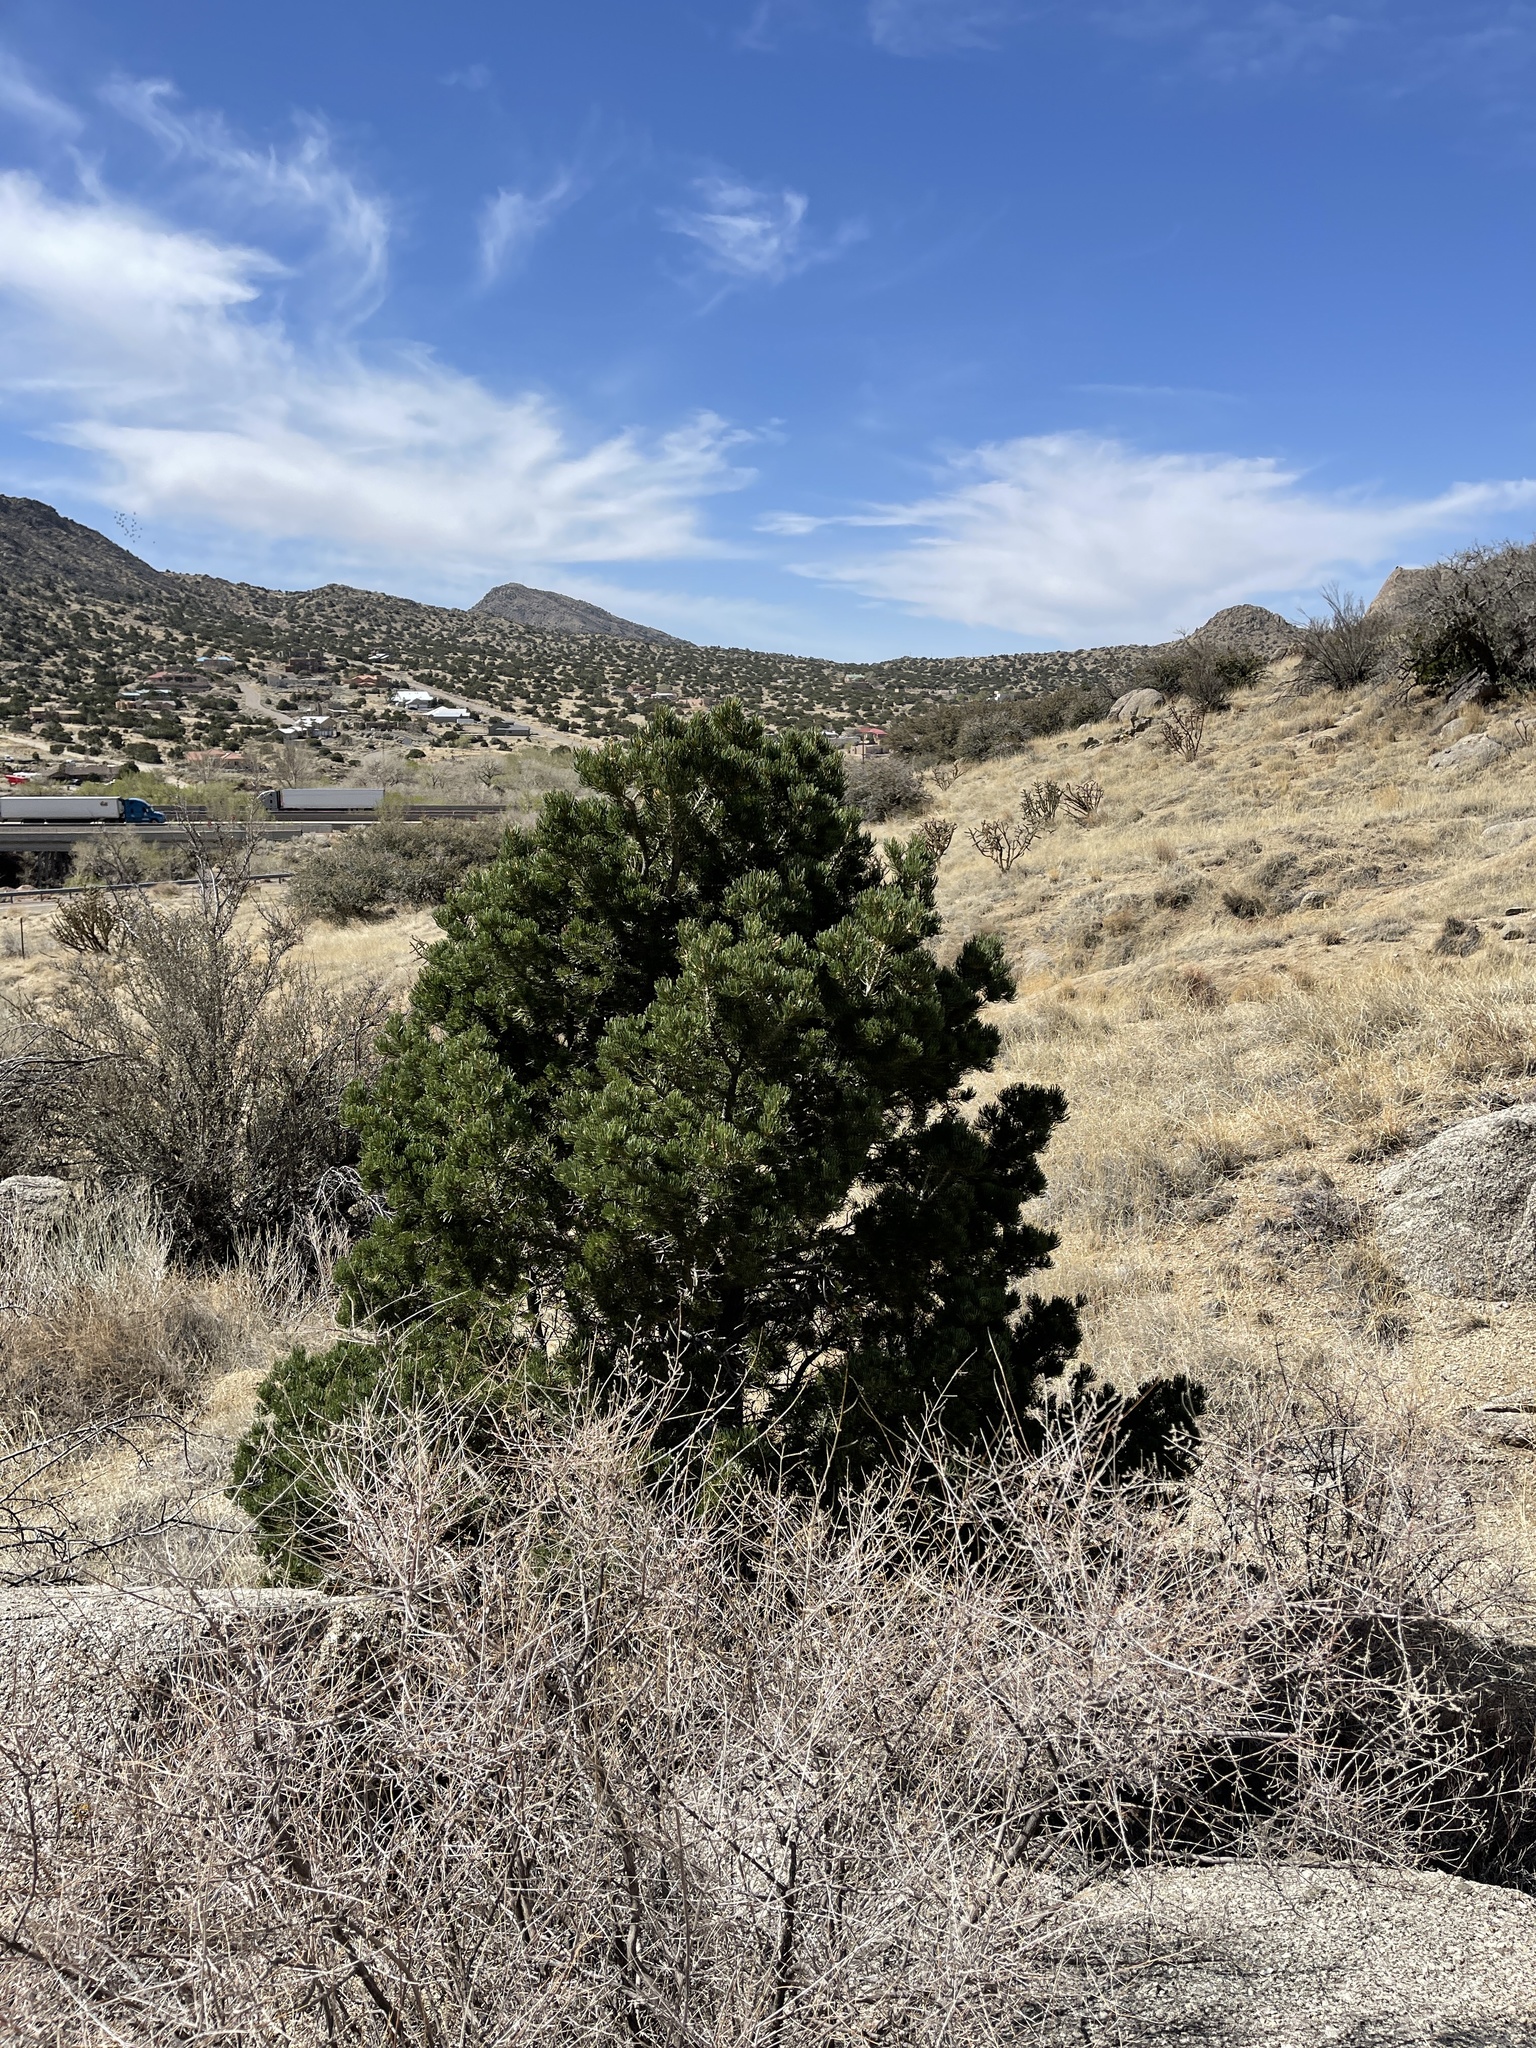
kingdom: Plantae
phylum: Tracheophyta
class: Pinopsida
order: Pinales
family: Pinaceae
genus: Pinus
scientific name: Pinus edulis
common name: Colorado pinyon
